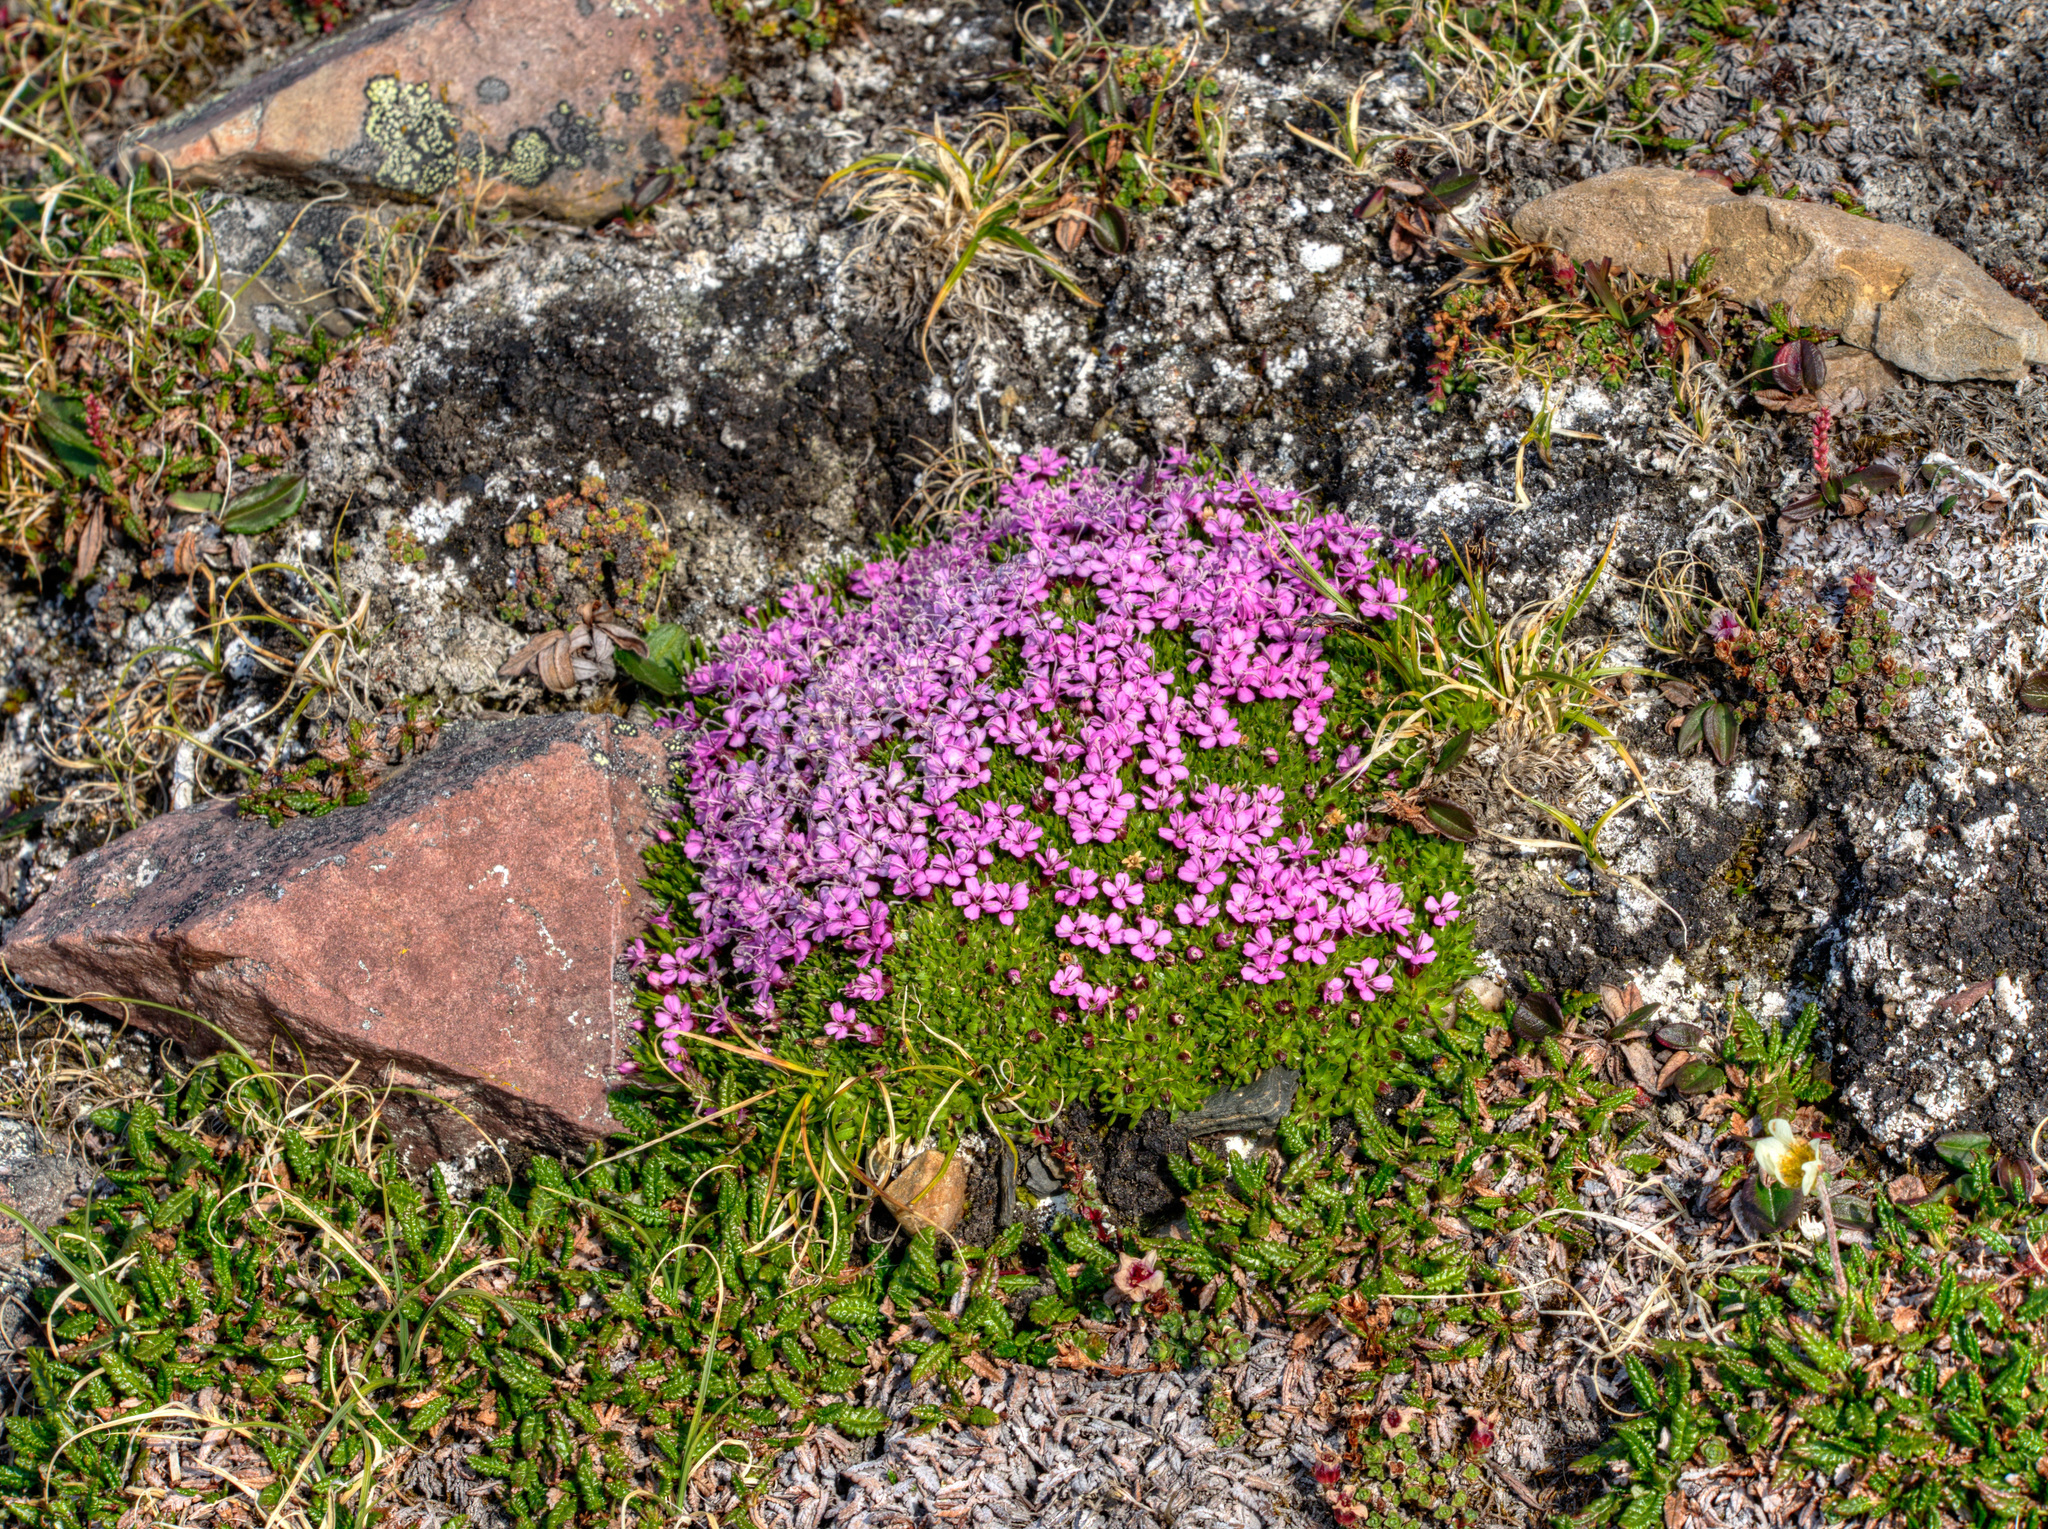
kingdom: Plantae
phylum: Tracheophyta
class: Magnoliopsida
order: Caryophyllales
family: Caryophyllaceae
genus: Silene
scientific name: Silene acaulis
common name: Moss campion
